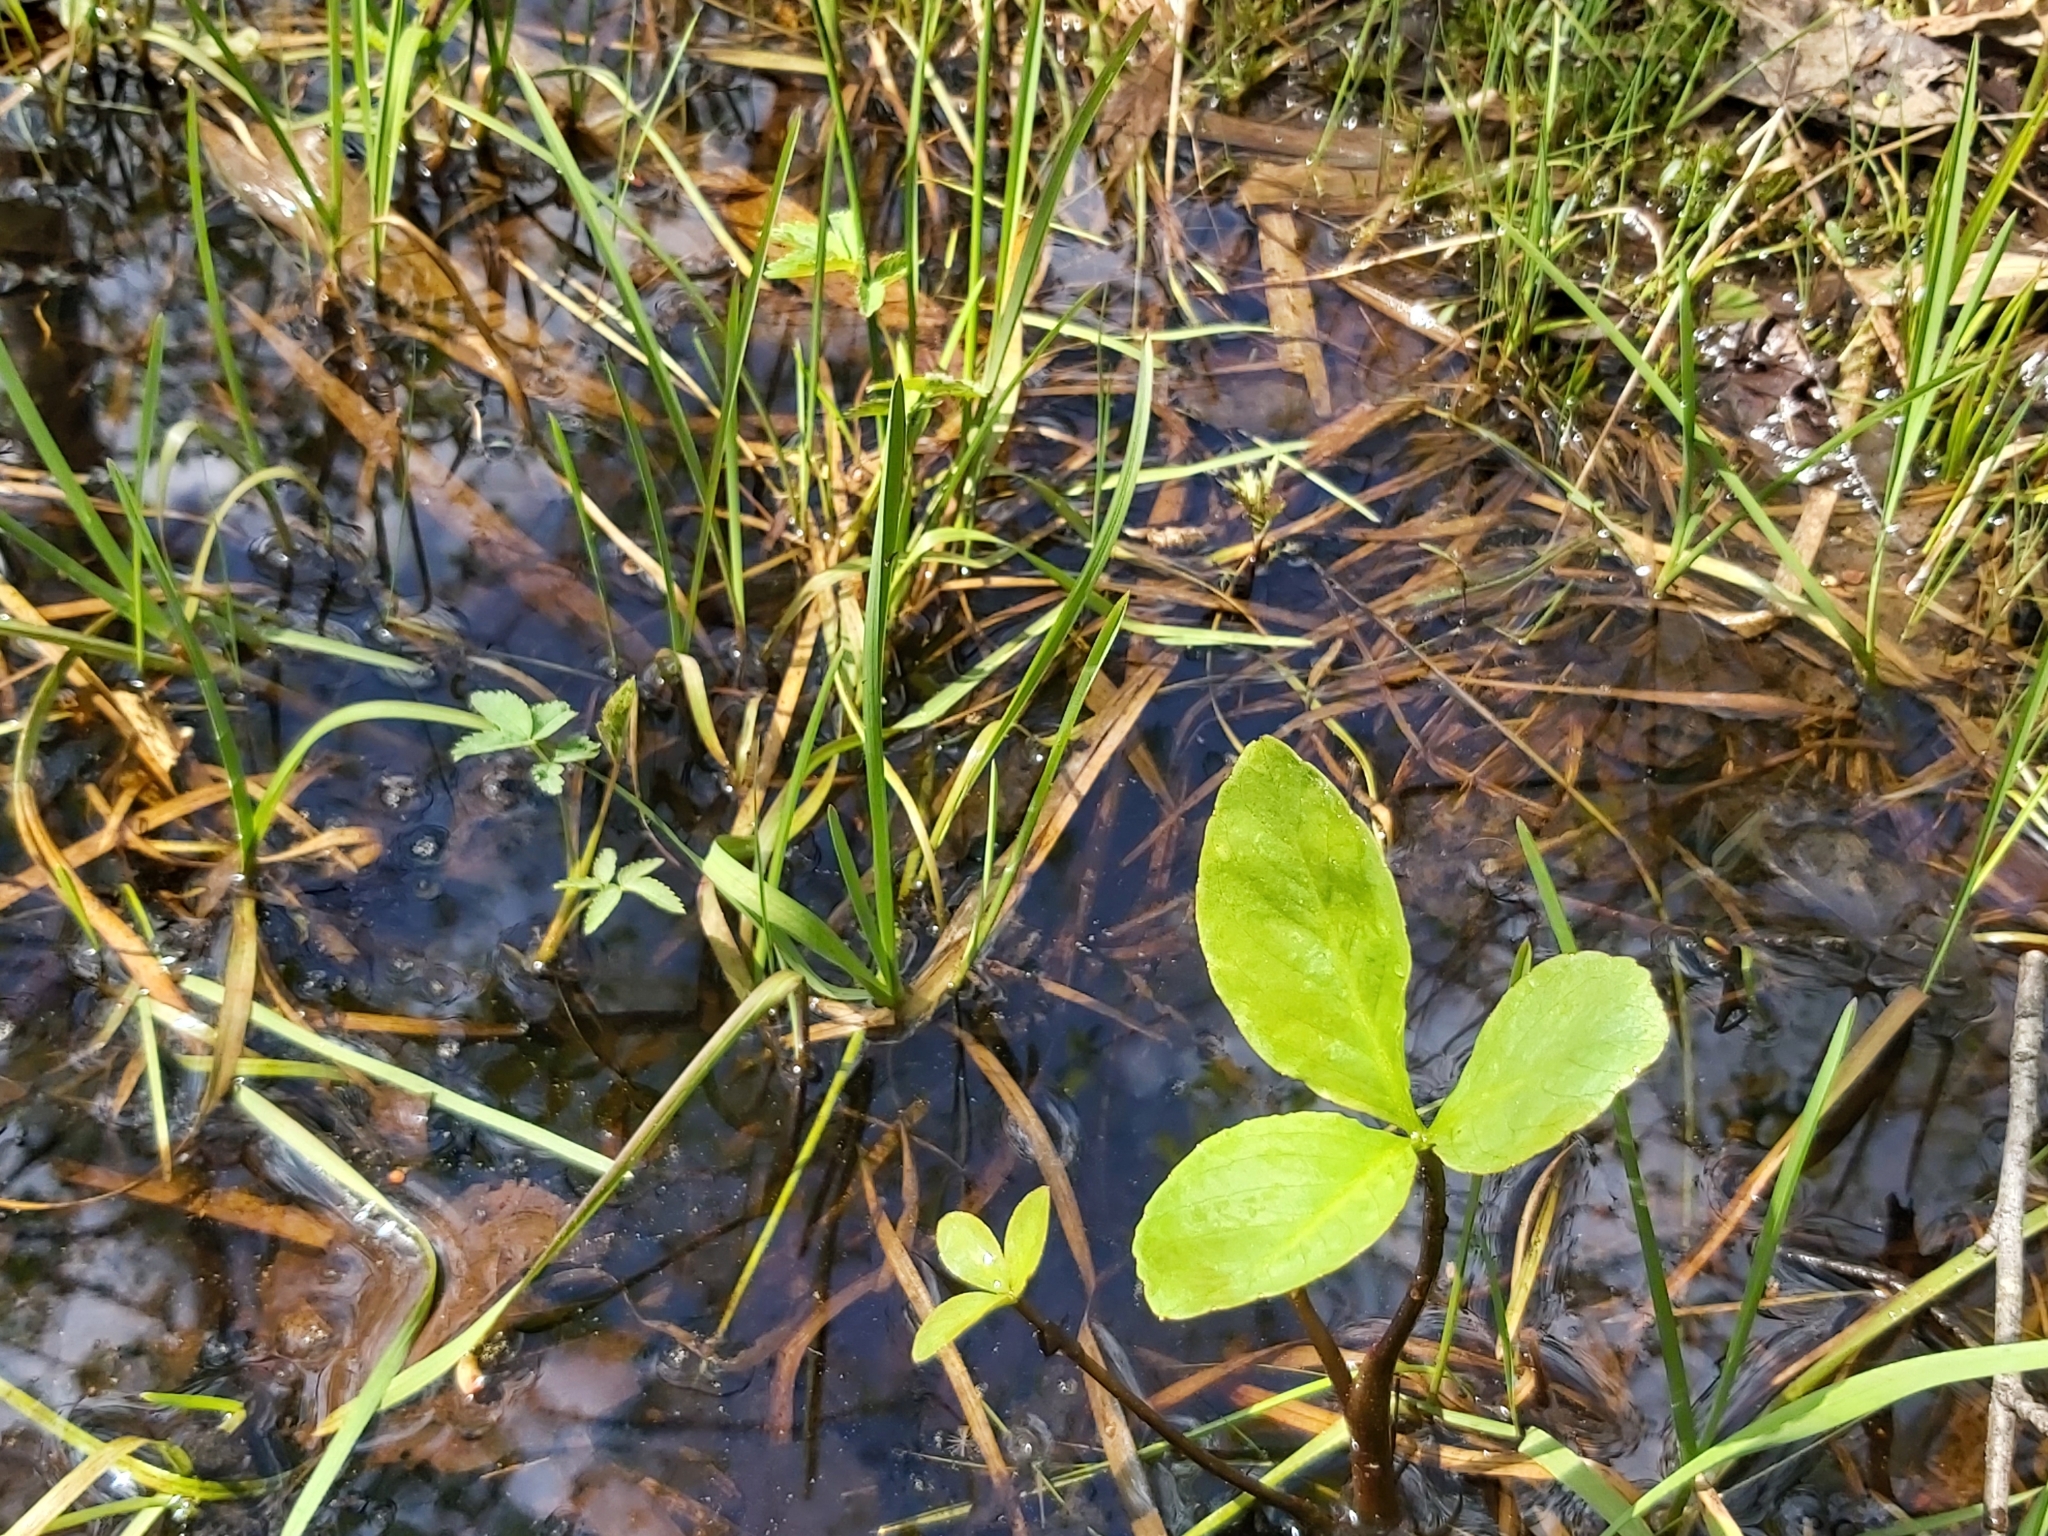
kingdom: Plantae
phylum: Tracheophyta
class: Magnoliopsida
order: Asterales
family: Menyanthaceae
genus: Menyanthes
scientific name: Menyanthes trifoliata
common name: Bogbean
